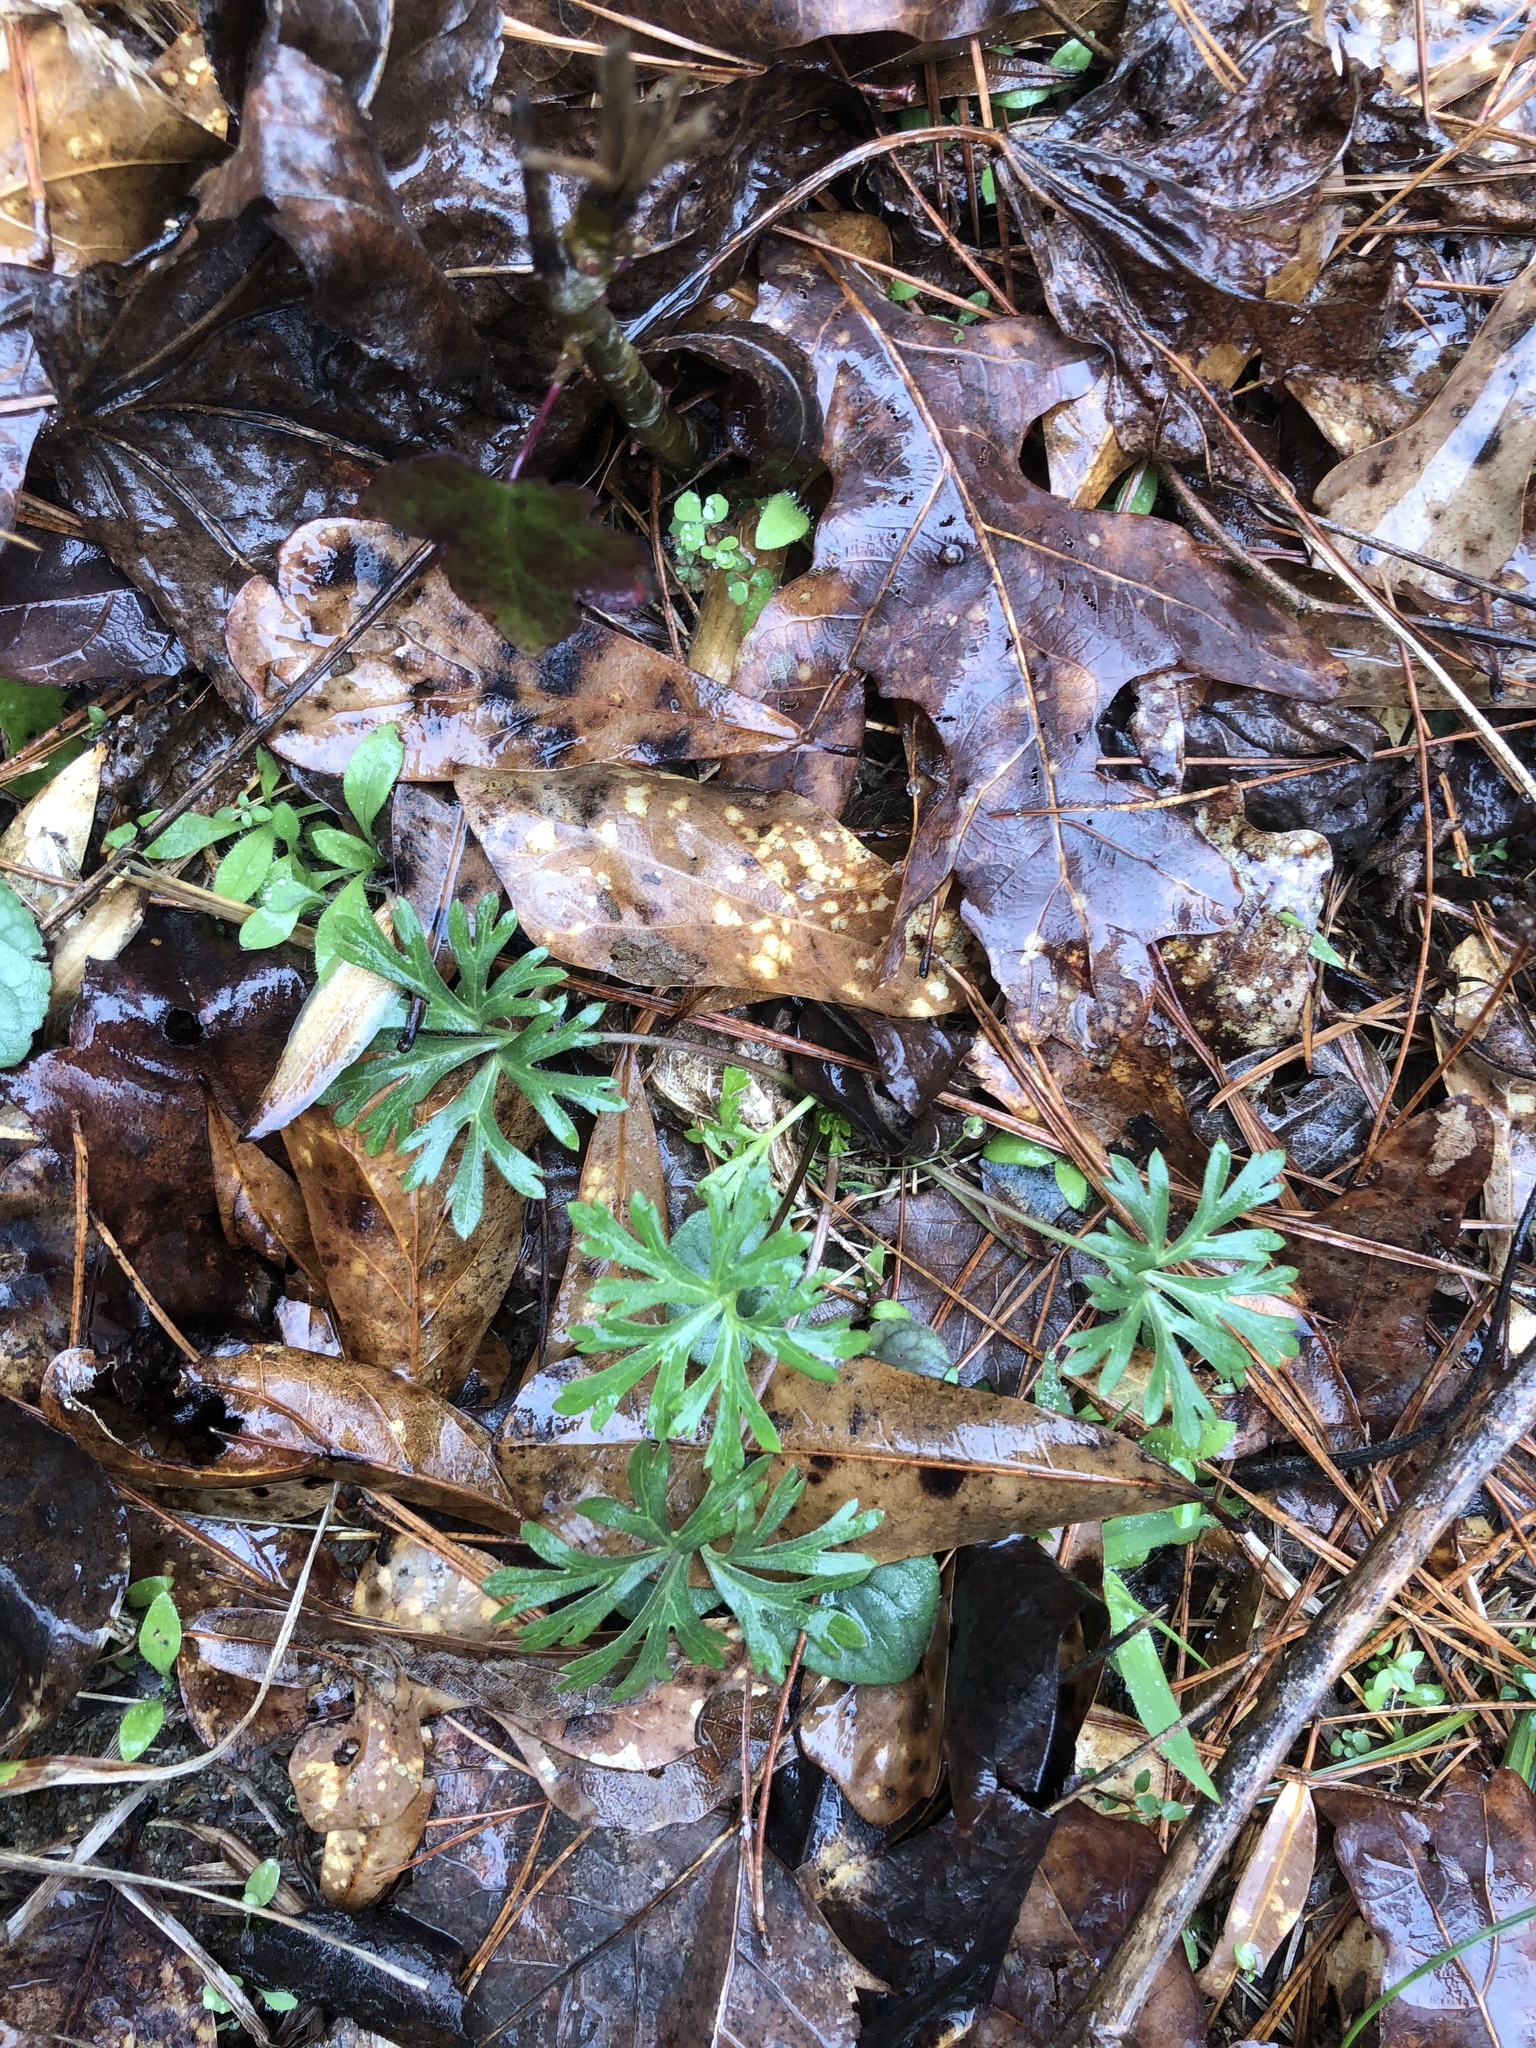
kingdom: Plantae
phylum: Tracheophyta
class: Magnoliopsida
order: Ranunculales
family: Ranunculaceae
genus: Delphinium
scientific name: Delphinium carolinianum
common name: Carolina larkspur
